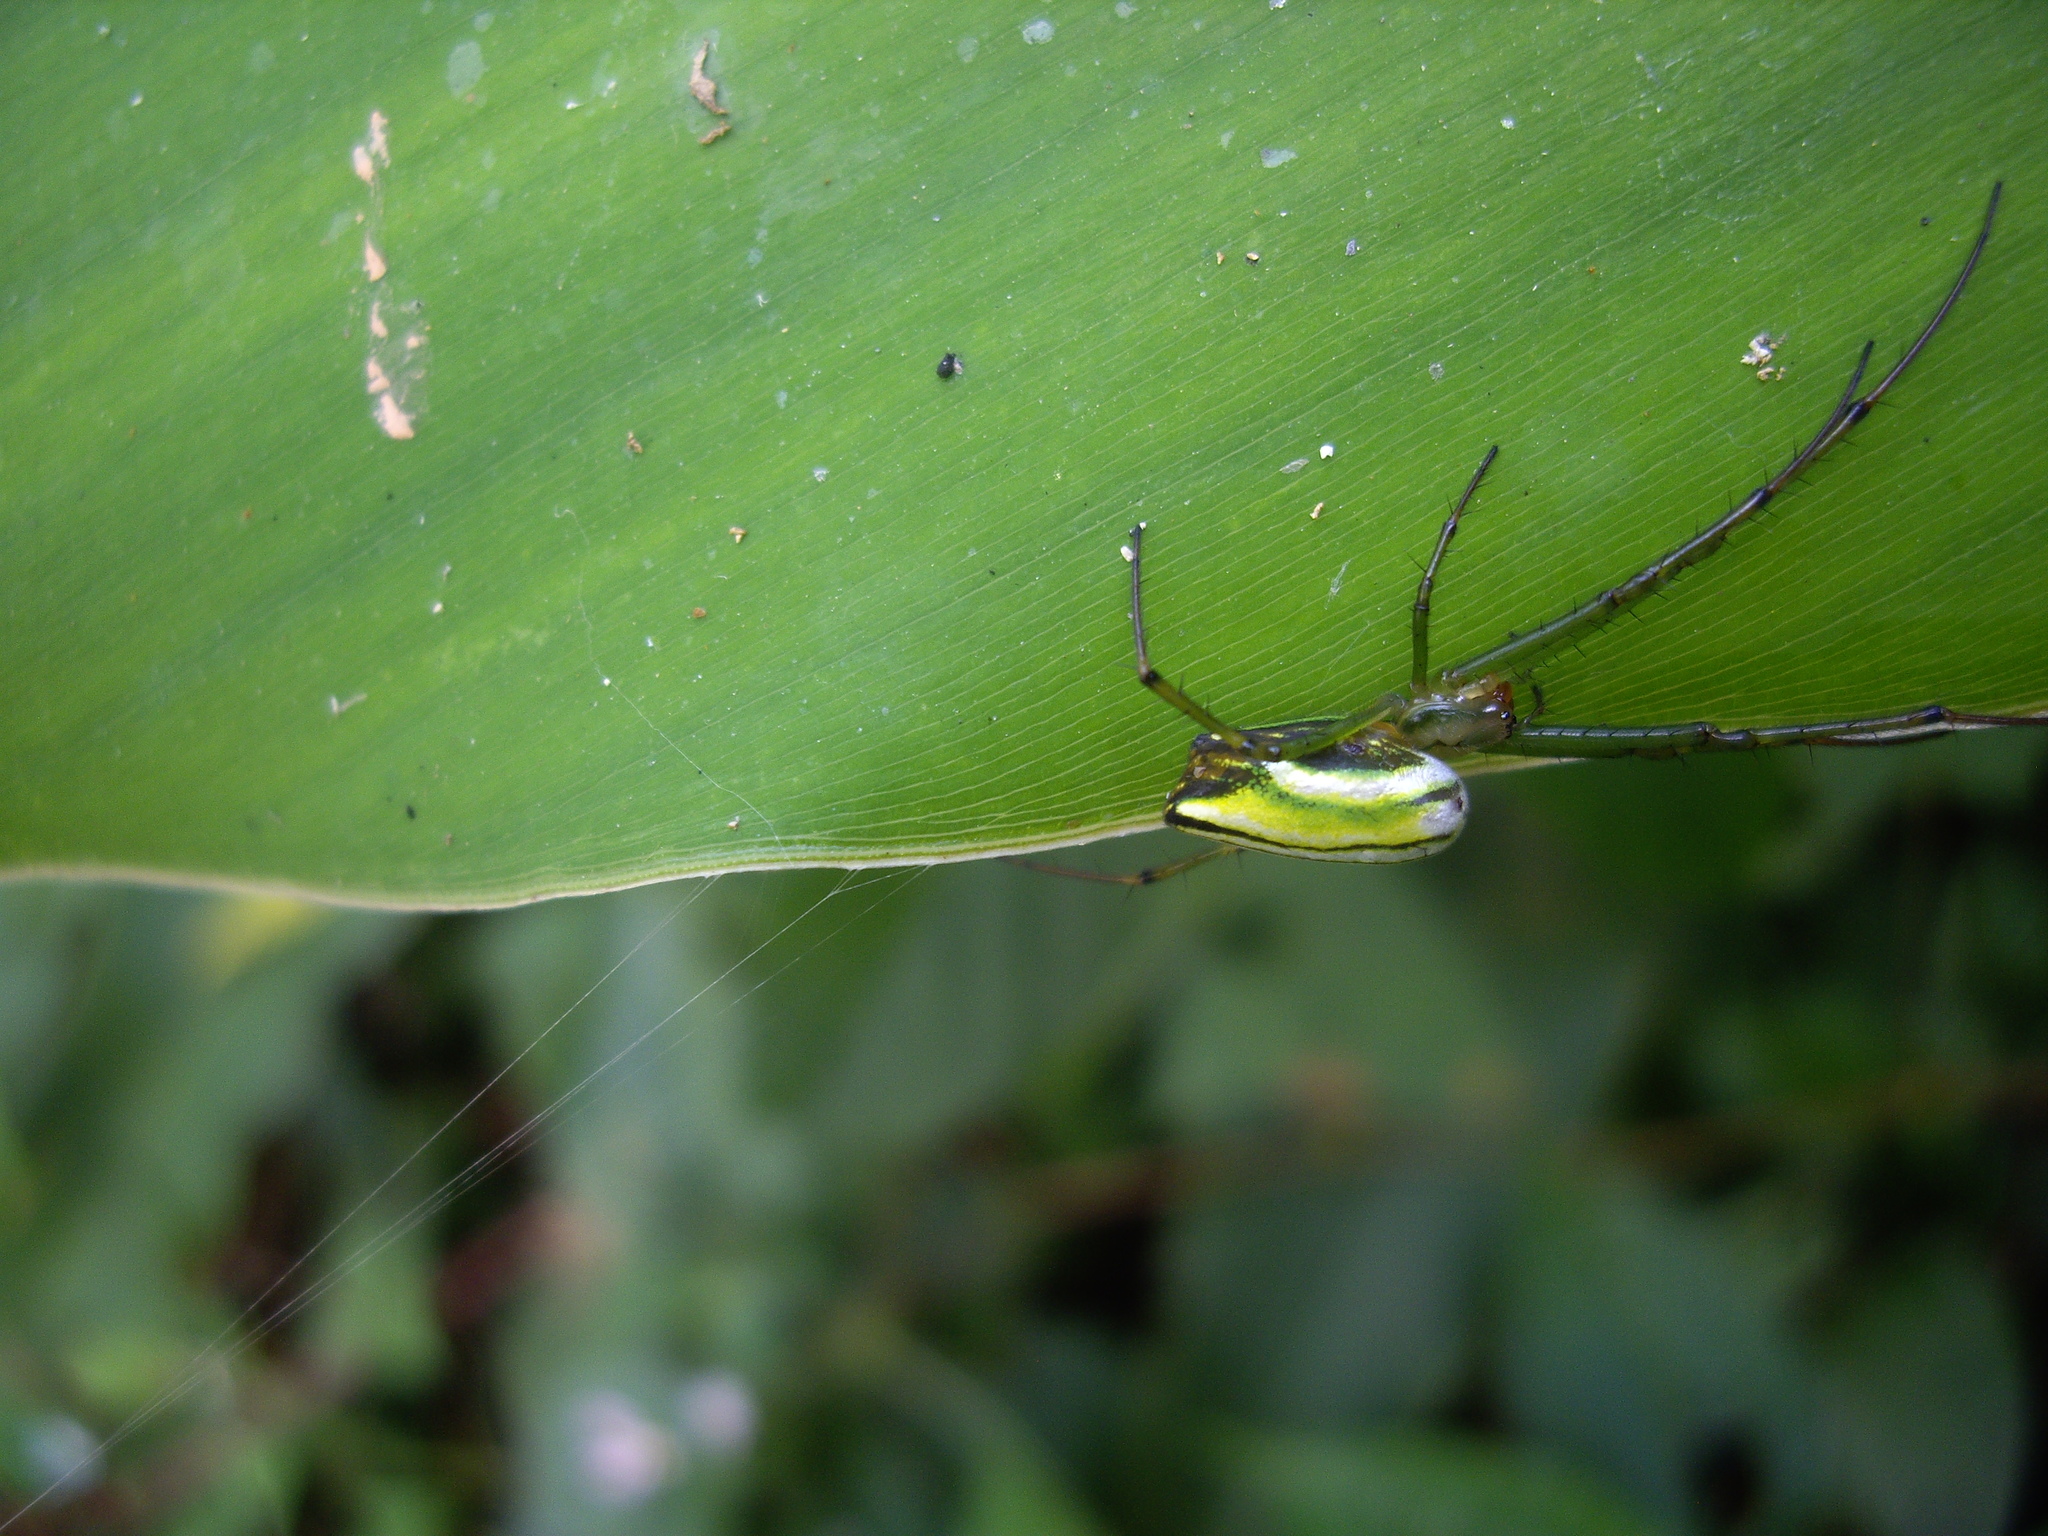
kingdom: Animalia
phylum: Arthropoda
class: Arachnida
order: Araneae
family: Tetragnathidae
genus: Leucauge
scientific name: Leucauge celebesiana
